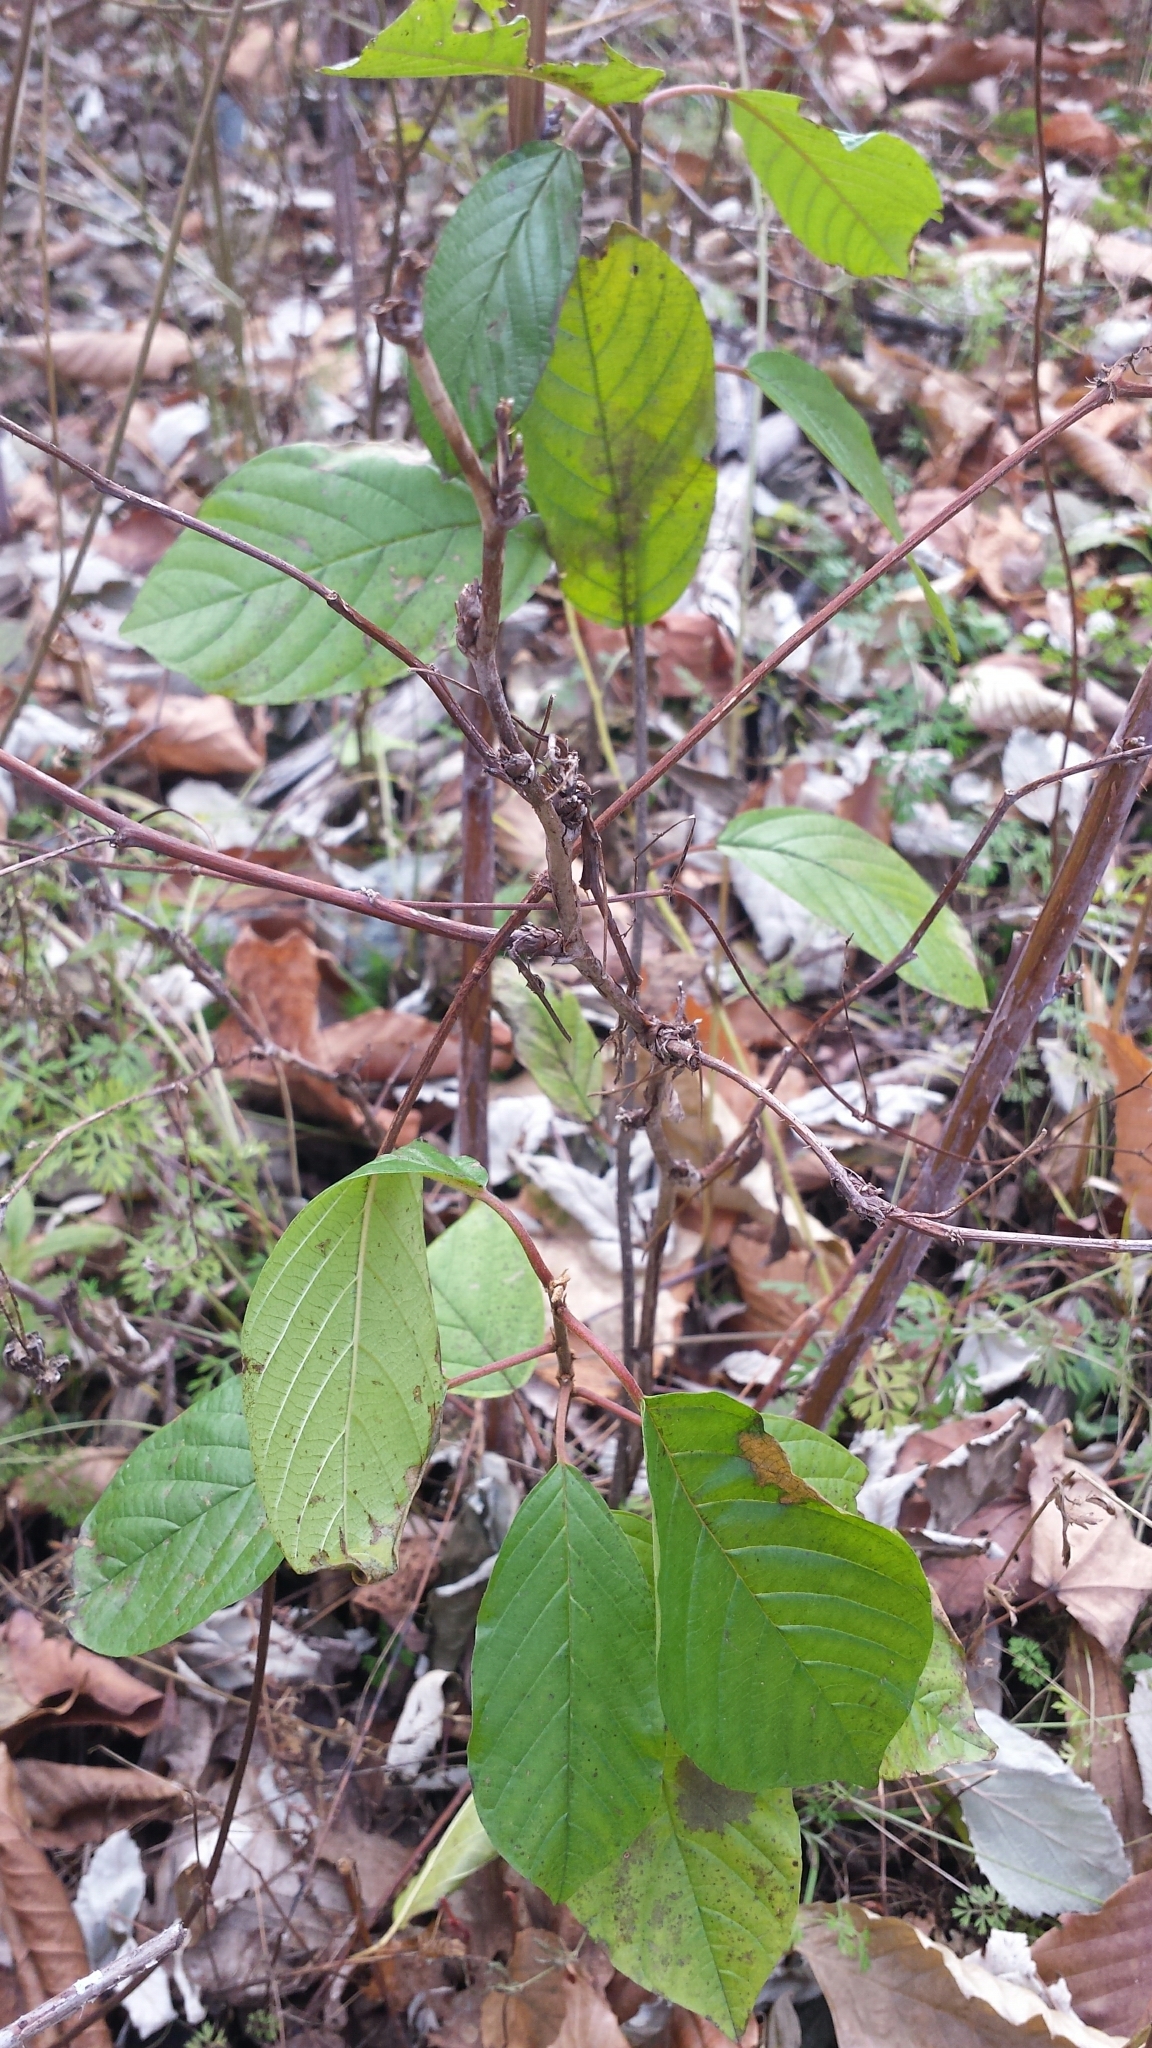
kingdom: Plantae
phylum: Tracheophyta
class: Magnoliopsida
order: Rosales
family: Rhamnaceae
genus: Frangula
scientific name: Frangula alnus
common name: Alder buckthorn
